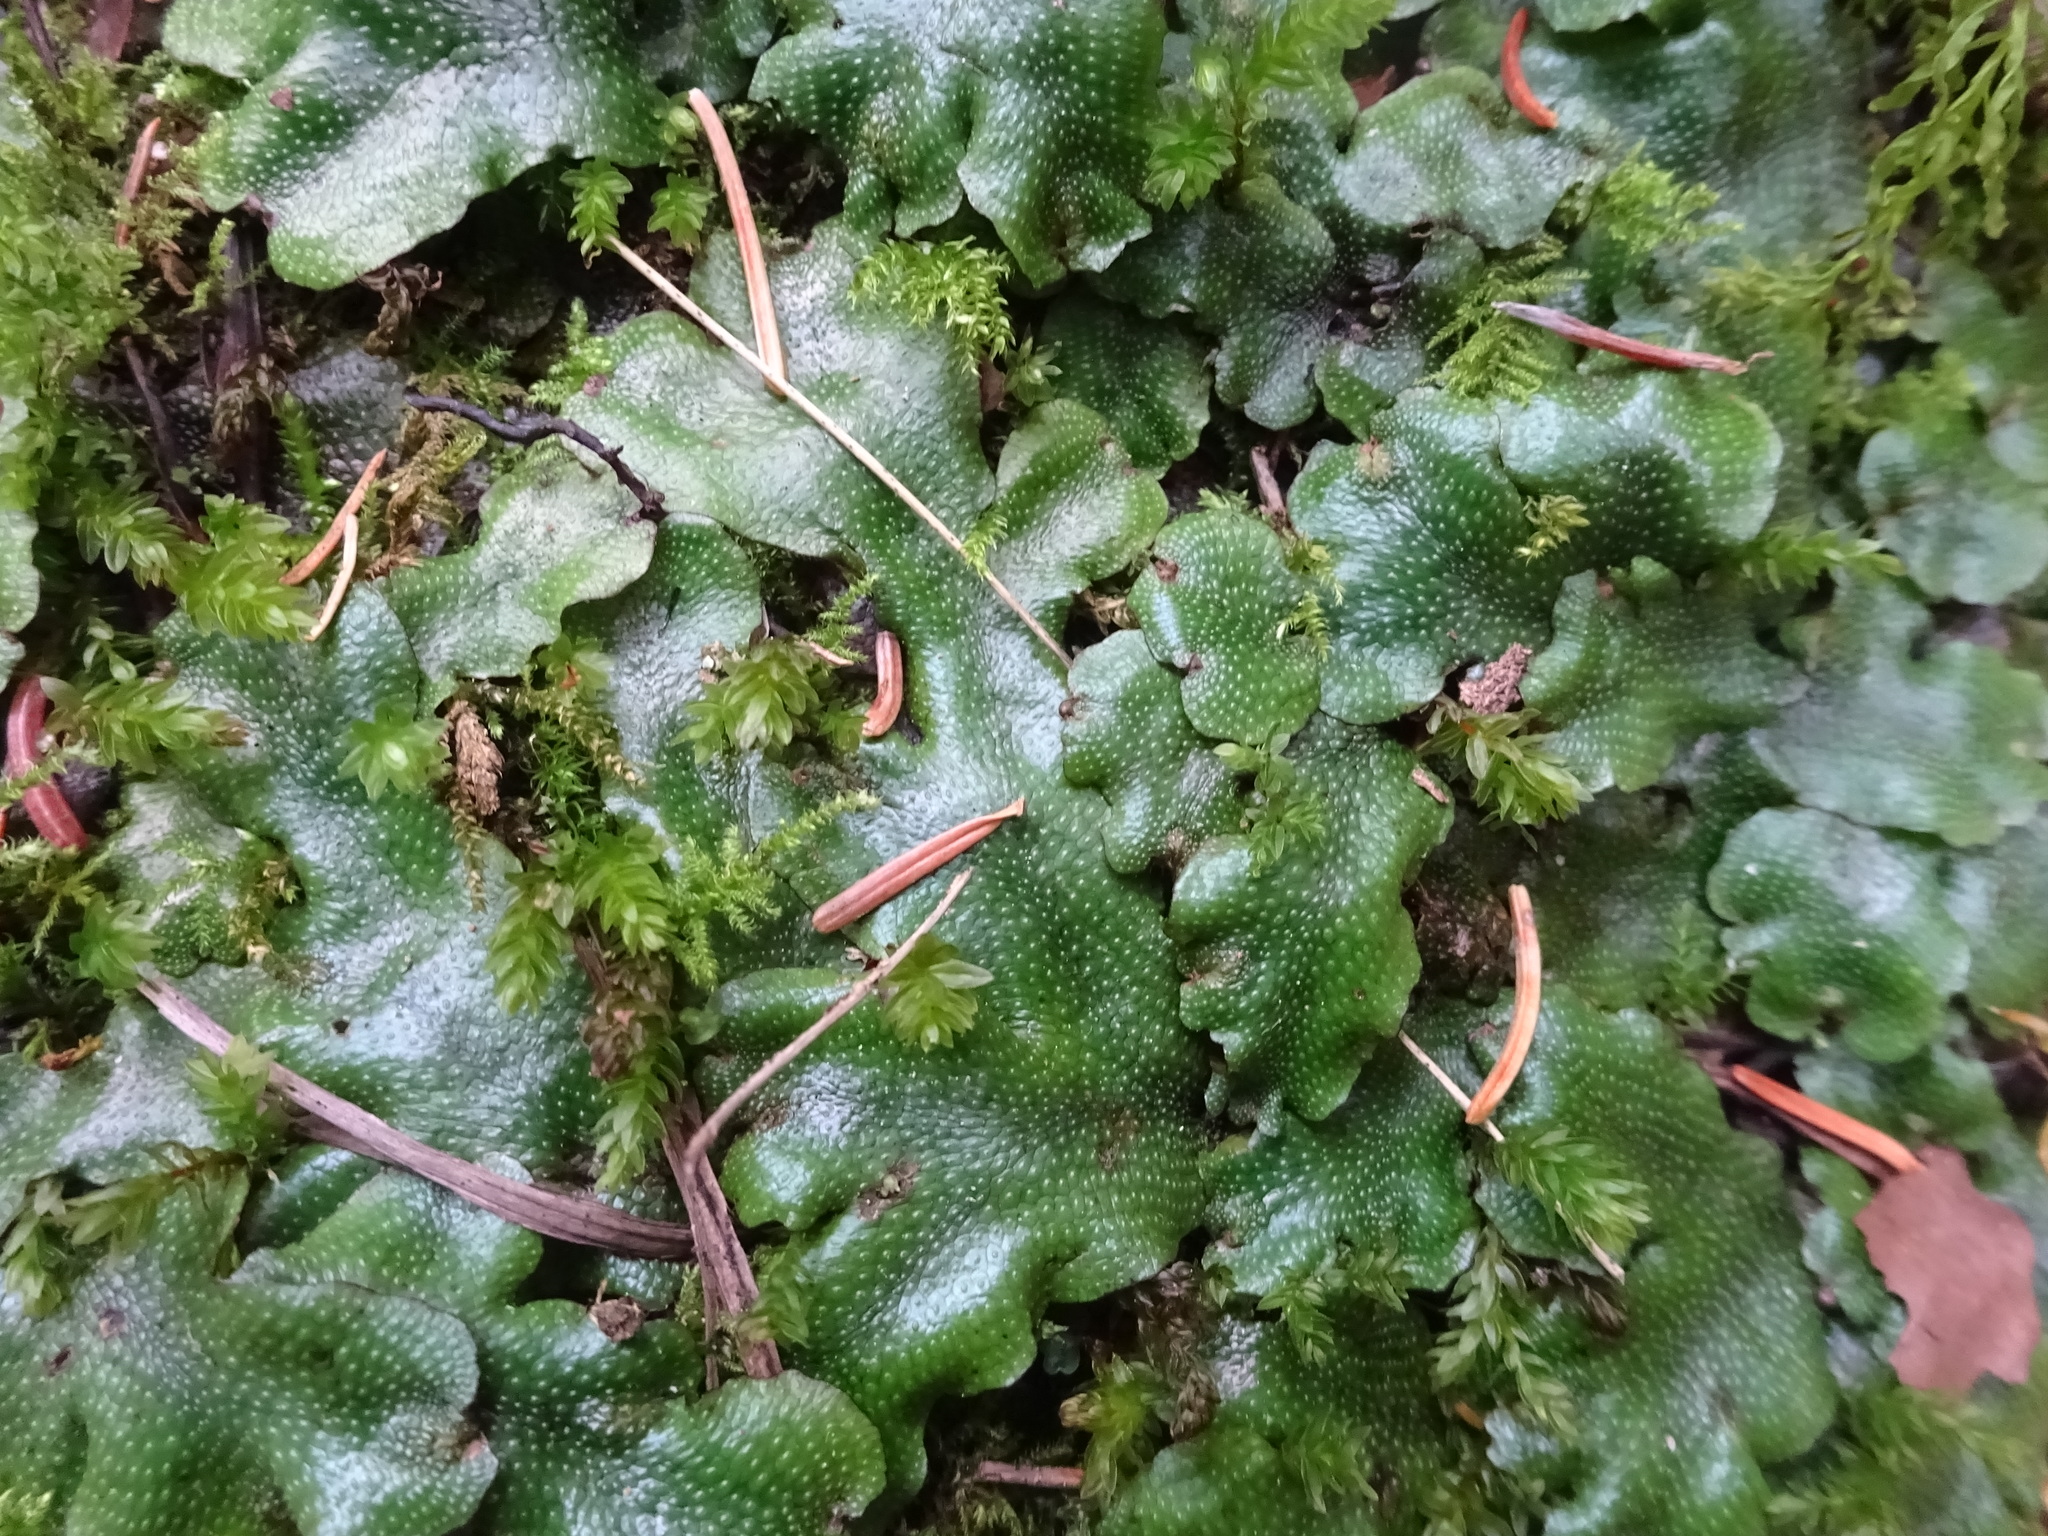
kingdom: Plantae
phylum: Marchantiophyta
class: Marchantiopsida
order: Marchantiales
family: Conocephalaceae
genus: Conocephalum
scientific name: Conocephalum conicum
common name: Great scented liverwort
